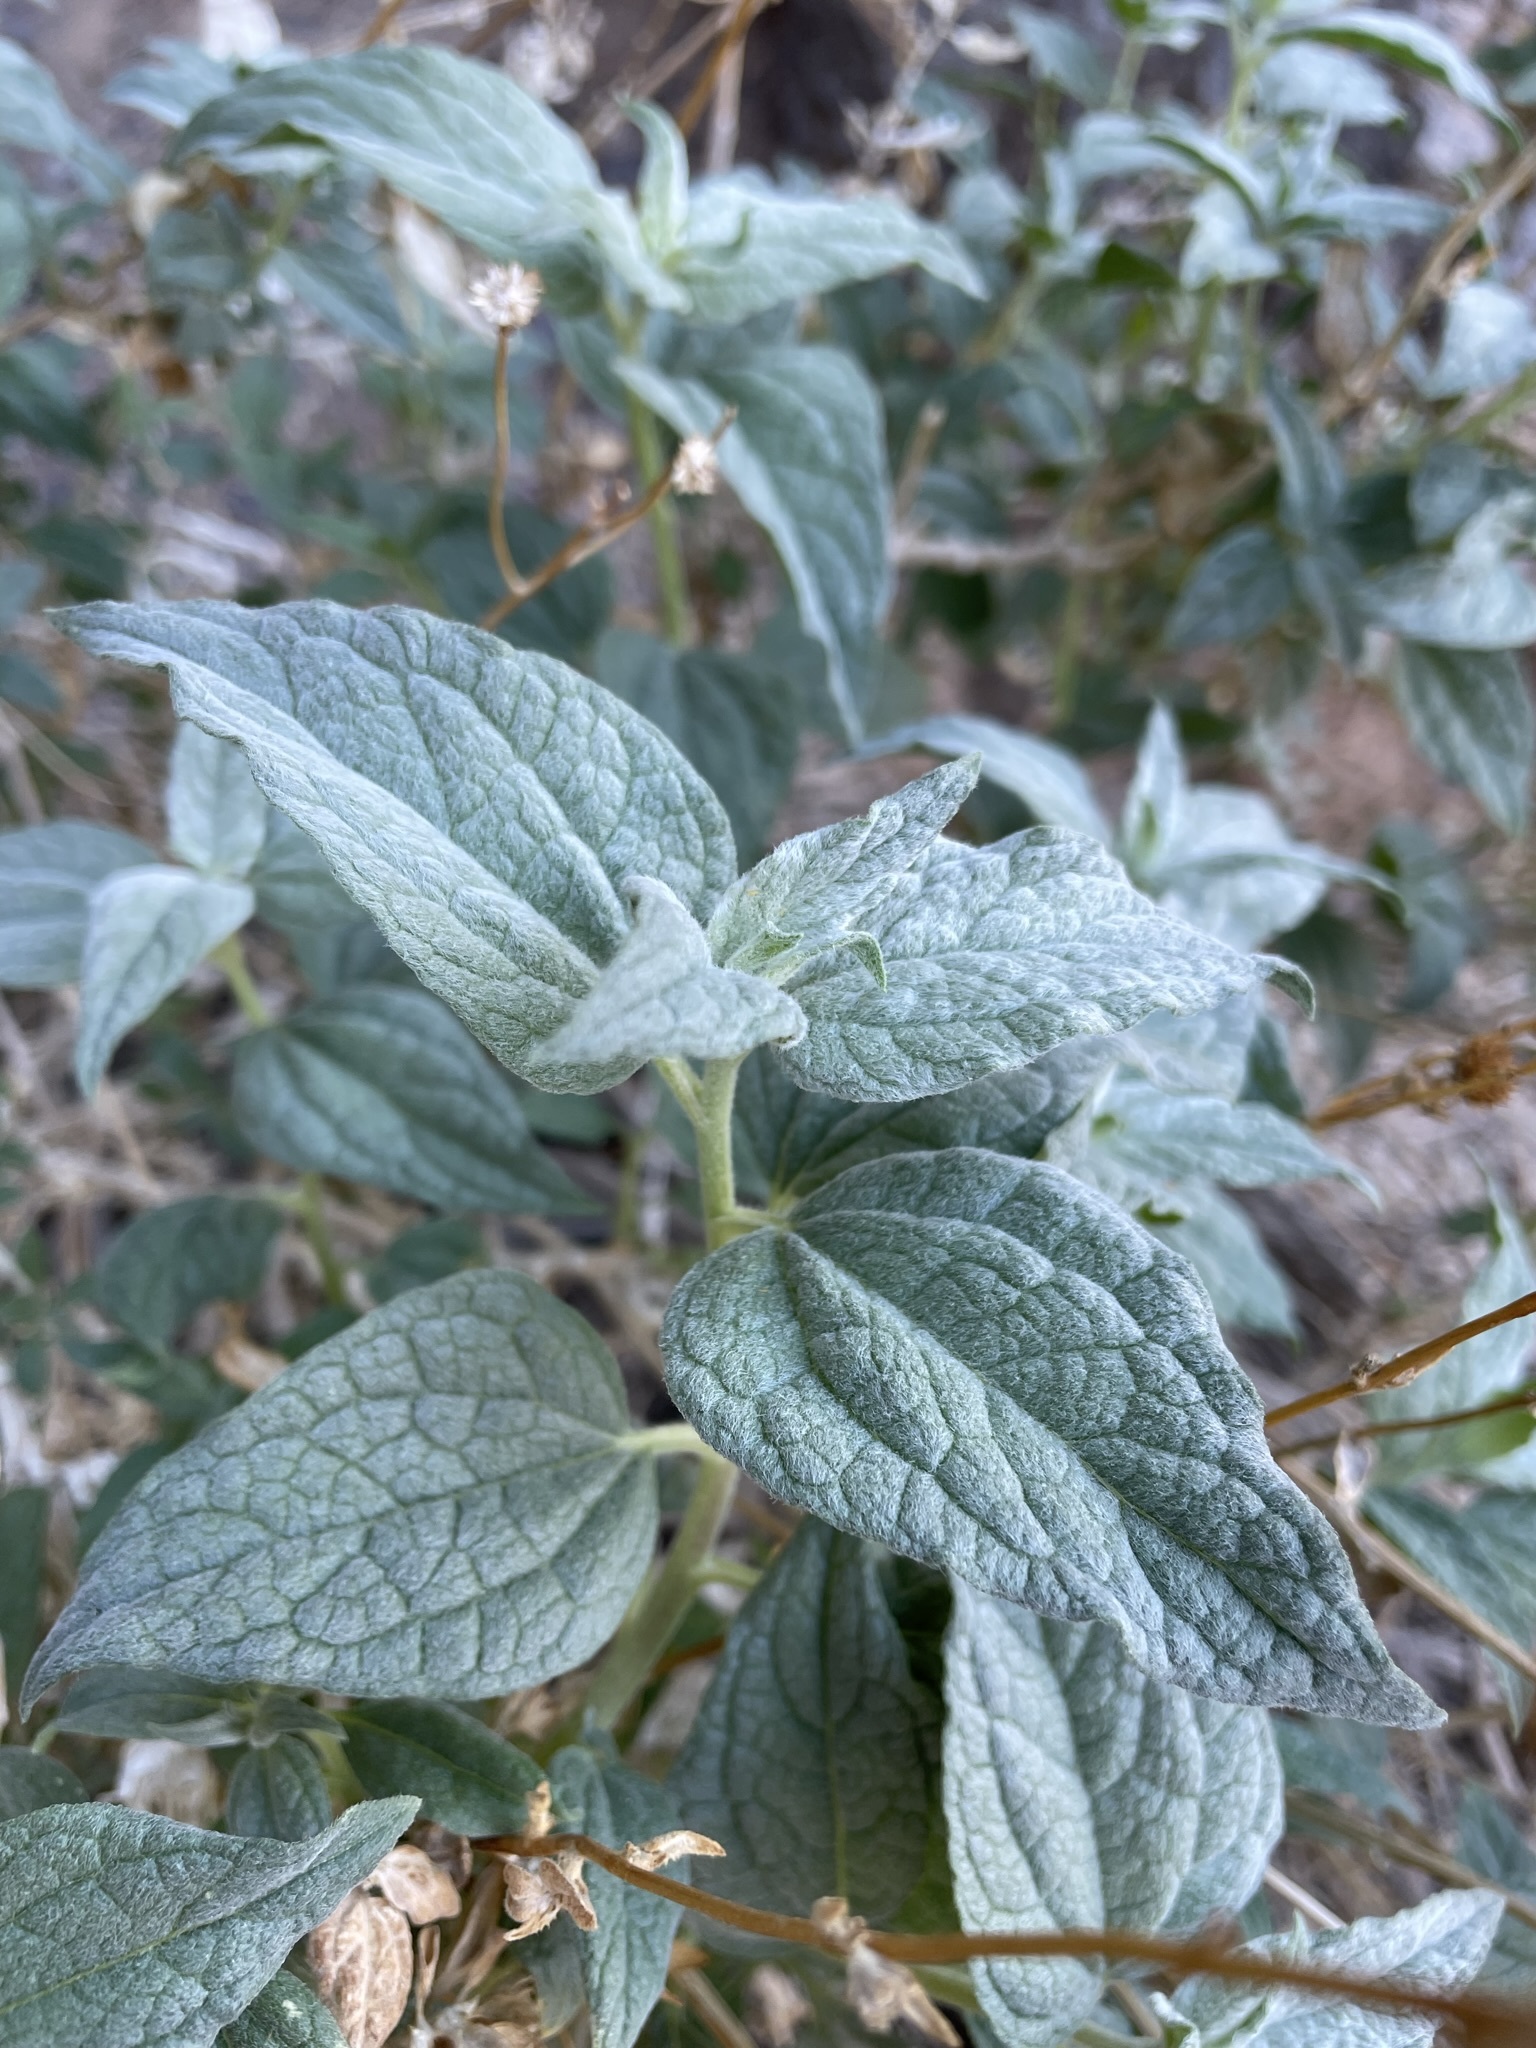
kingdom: Plantae
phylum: Tracheophyta
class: Magnoliopsida
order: Asterales
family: Asteraceae
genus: Bahiopsis
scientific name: Bahiopsis reticulata
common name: Death valley goldeneye
